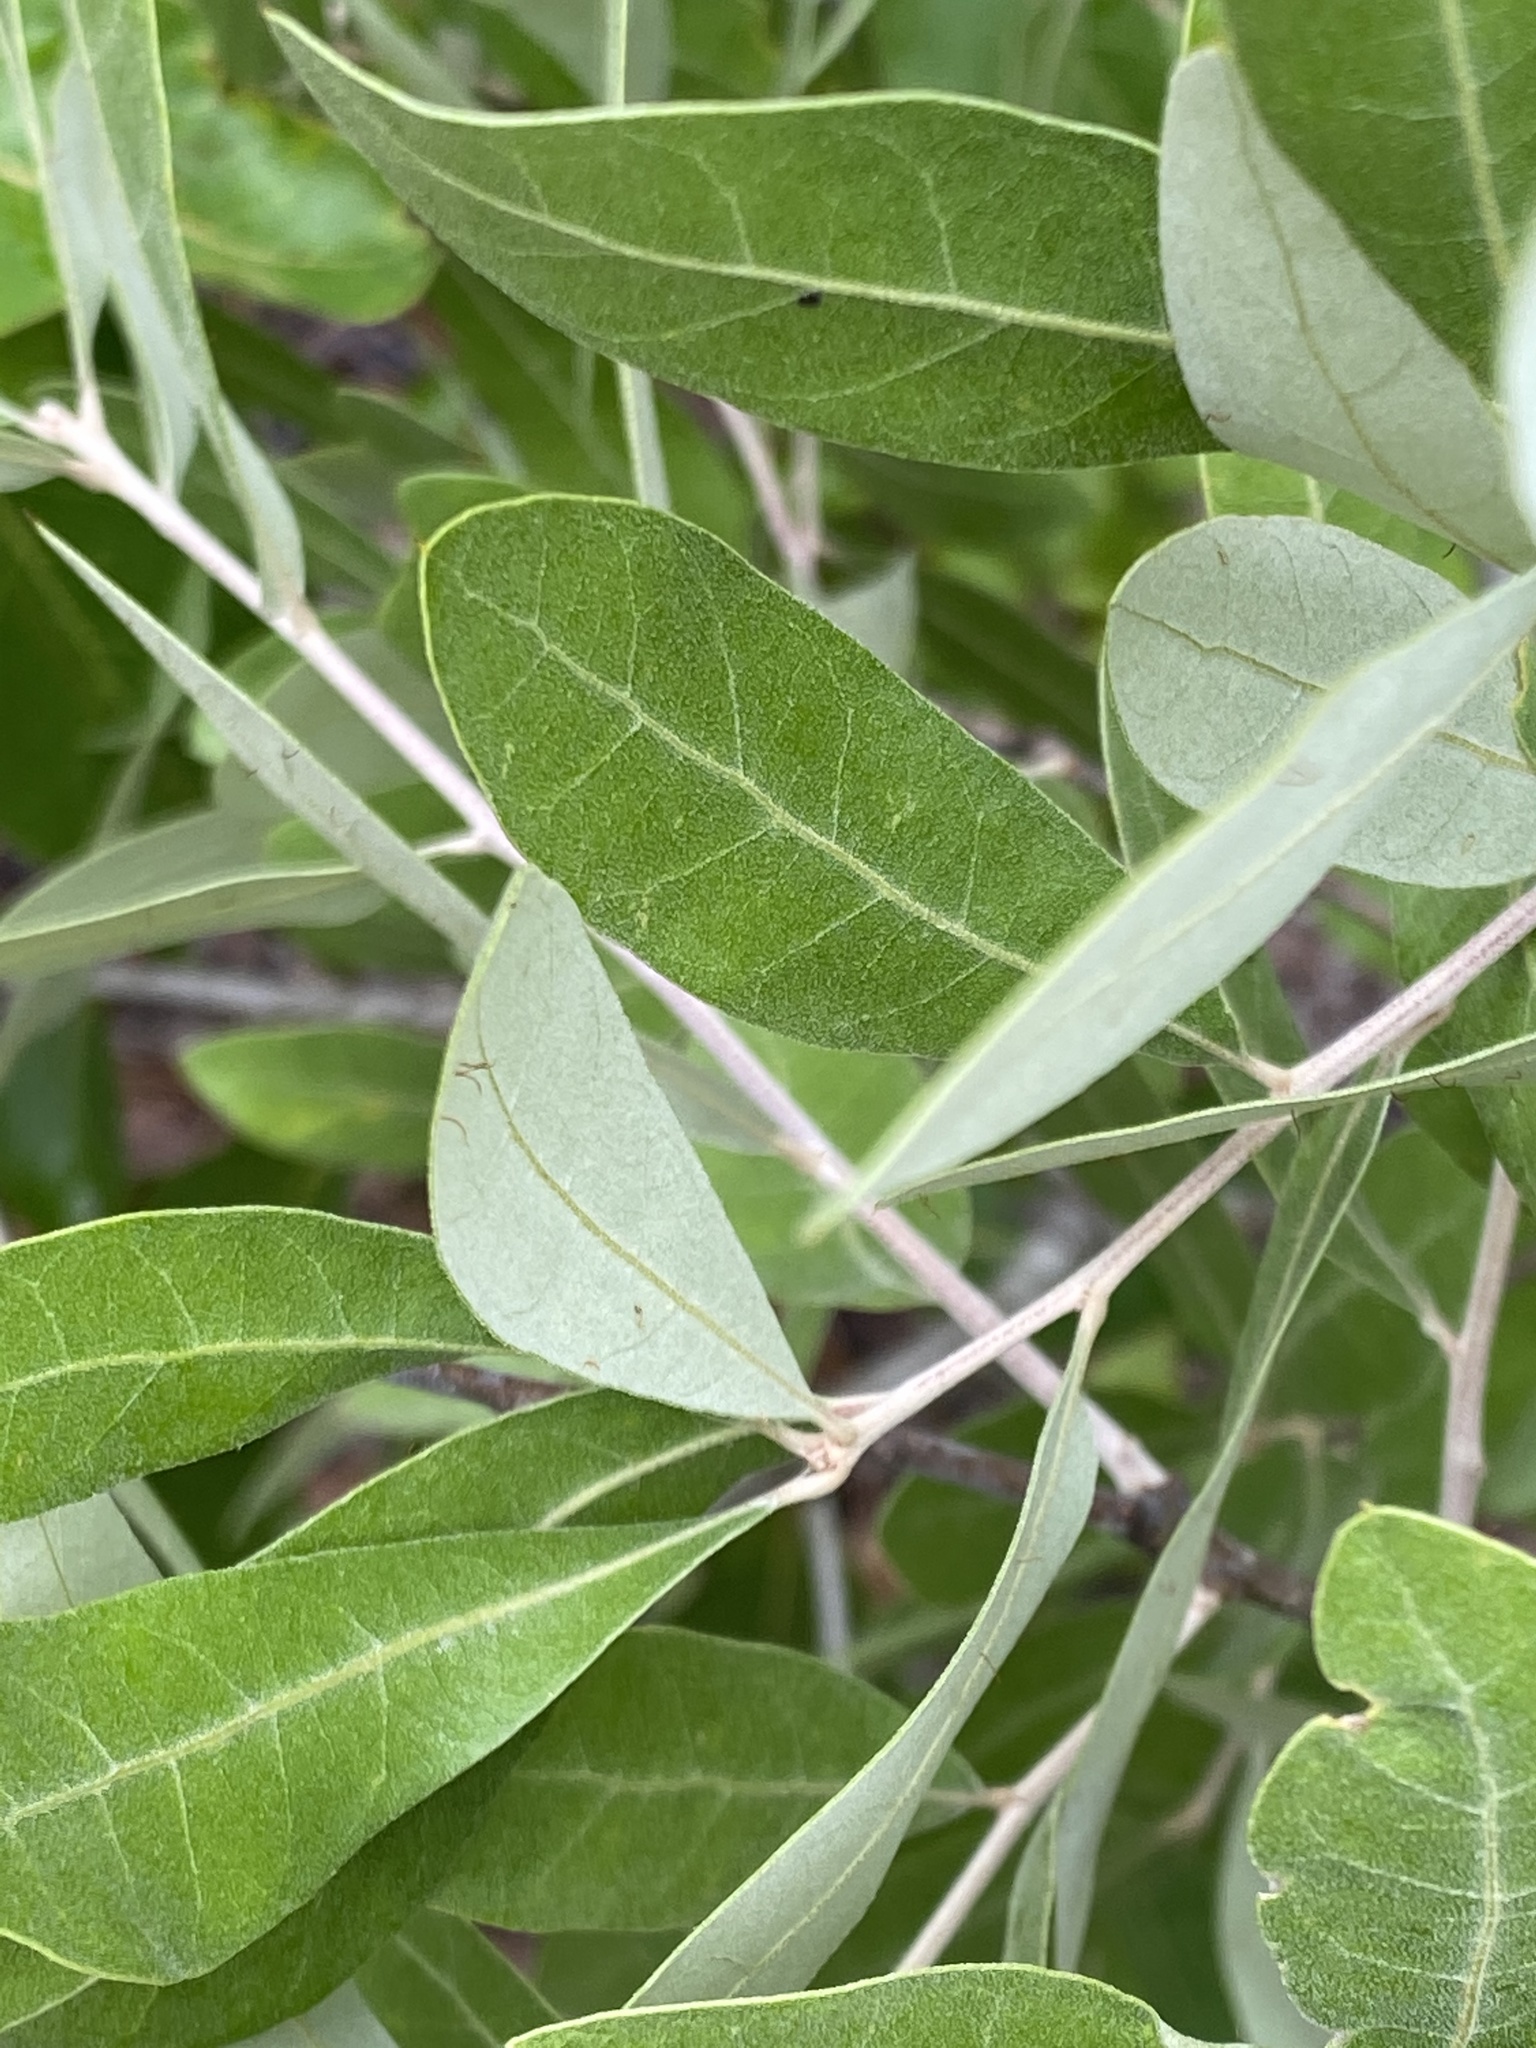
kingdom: Plantae
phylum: Tracheophyta
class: Magnoliopsida
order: Fagales
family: Fagaceae
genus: Quercus
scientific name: Quercus incana
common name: Bluejack oak
